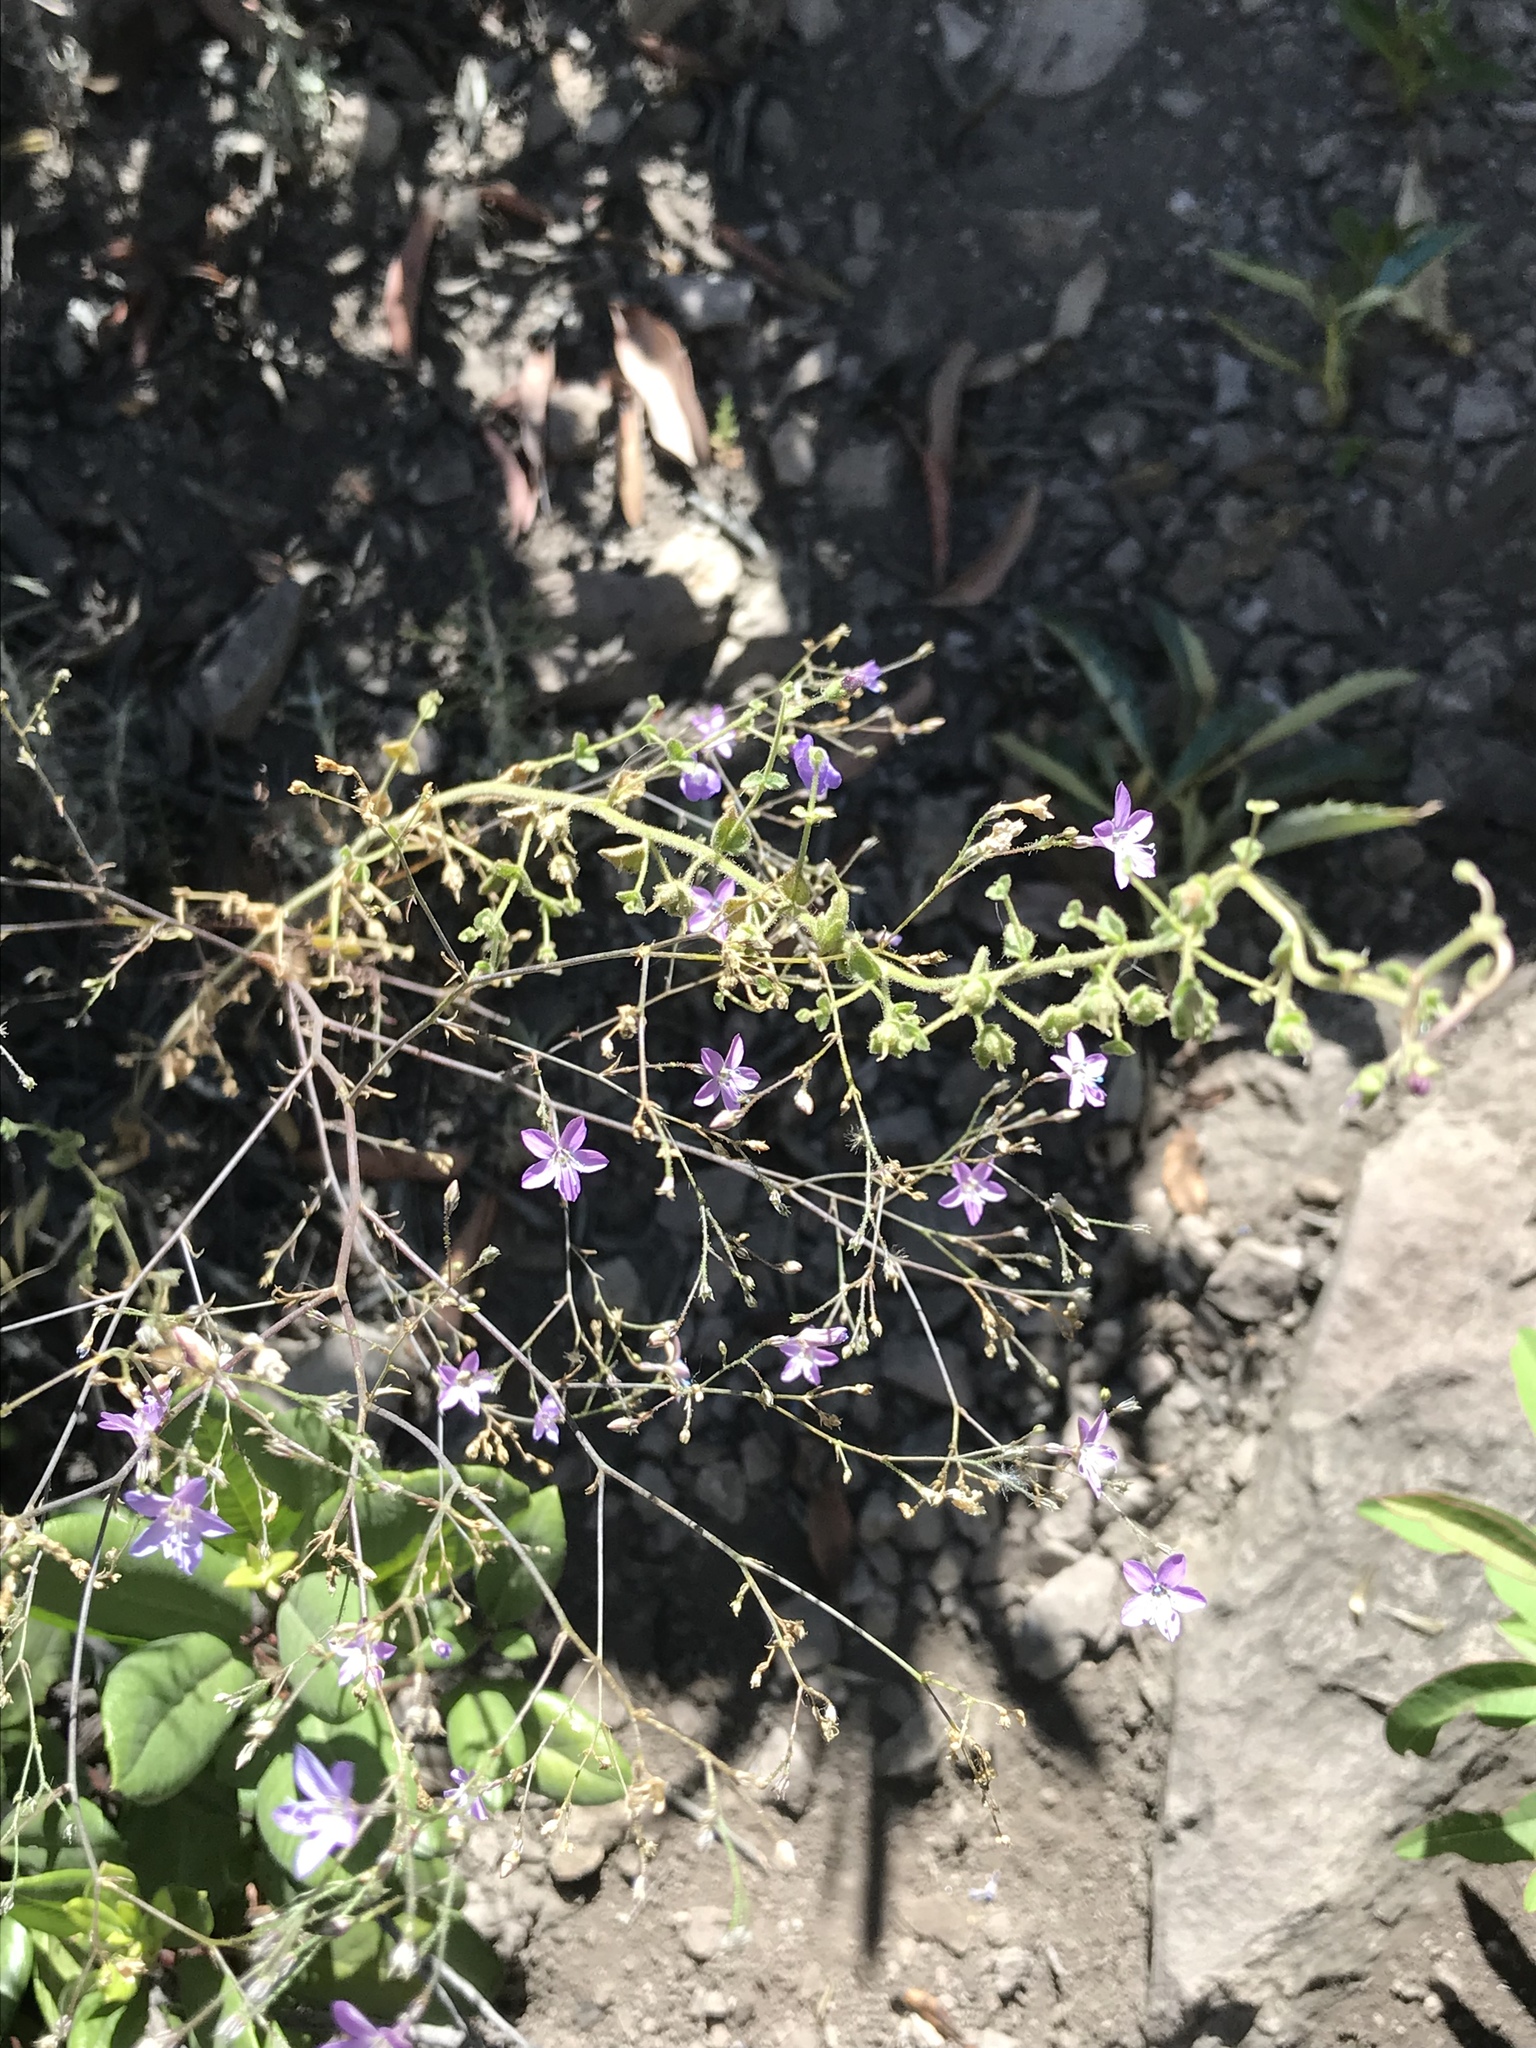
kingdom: Plantae
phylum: Tracheophyta
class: Magnoliopsida
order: Ericales
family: Polemoniaceae
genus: Saltugilia
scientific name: Saltugilia caruifolia
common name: Carawayleaf gilia
